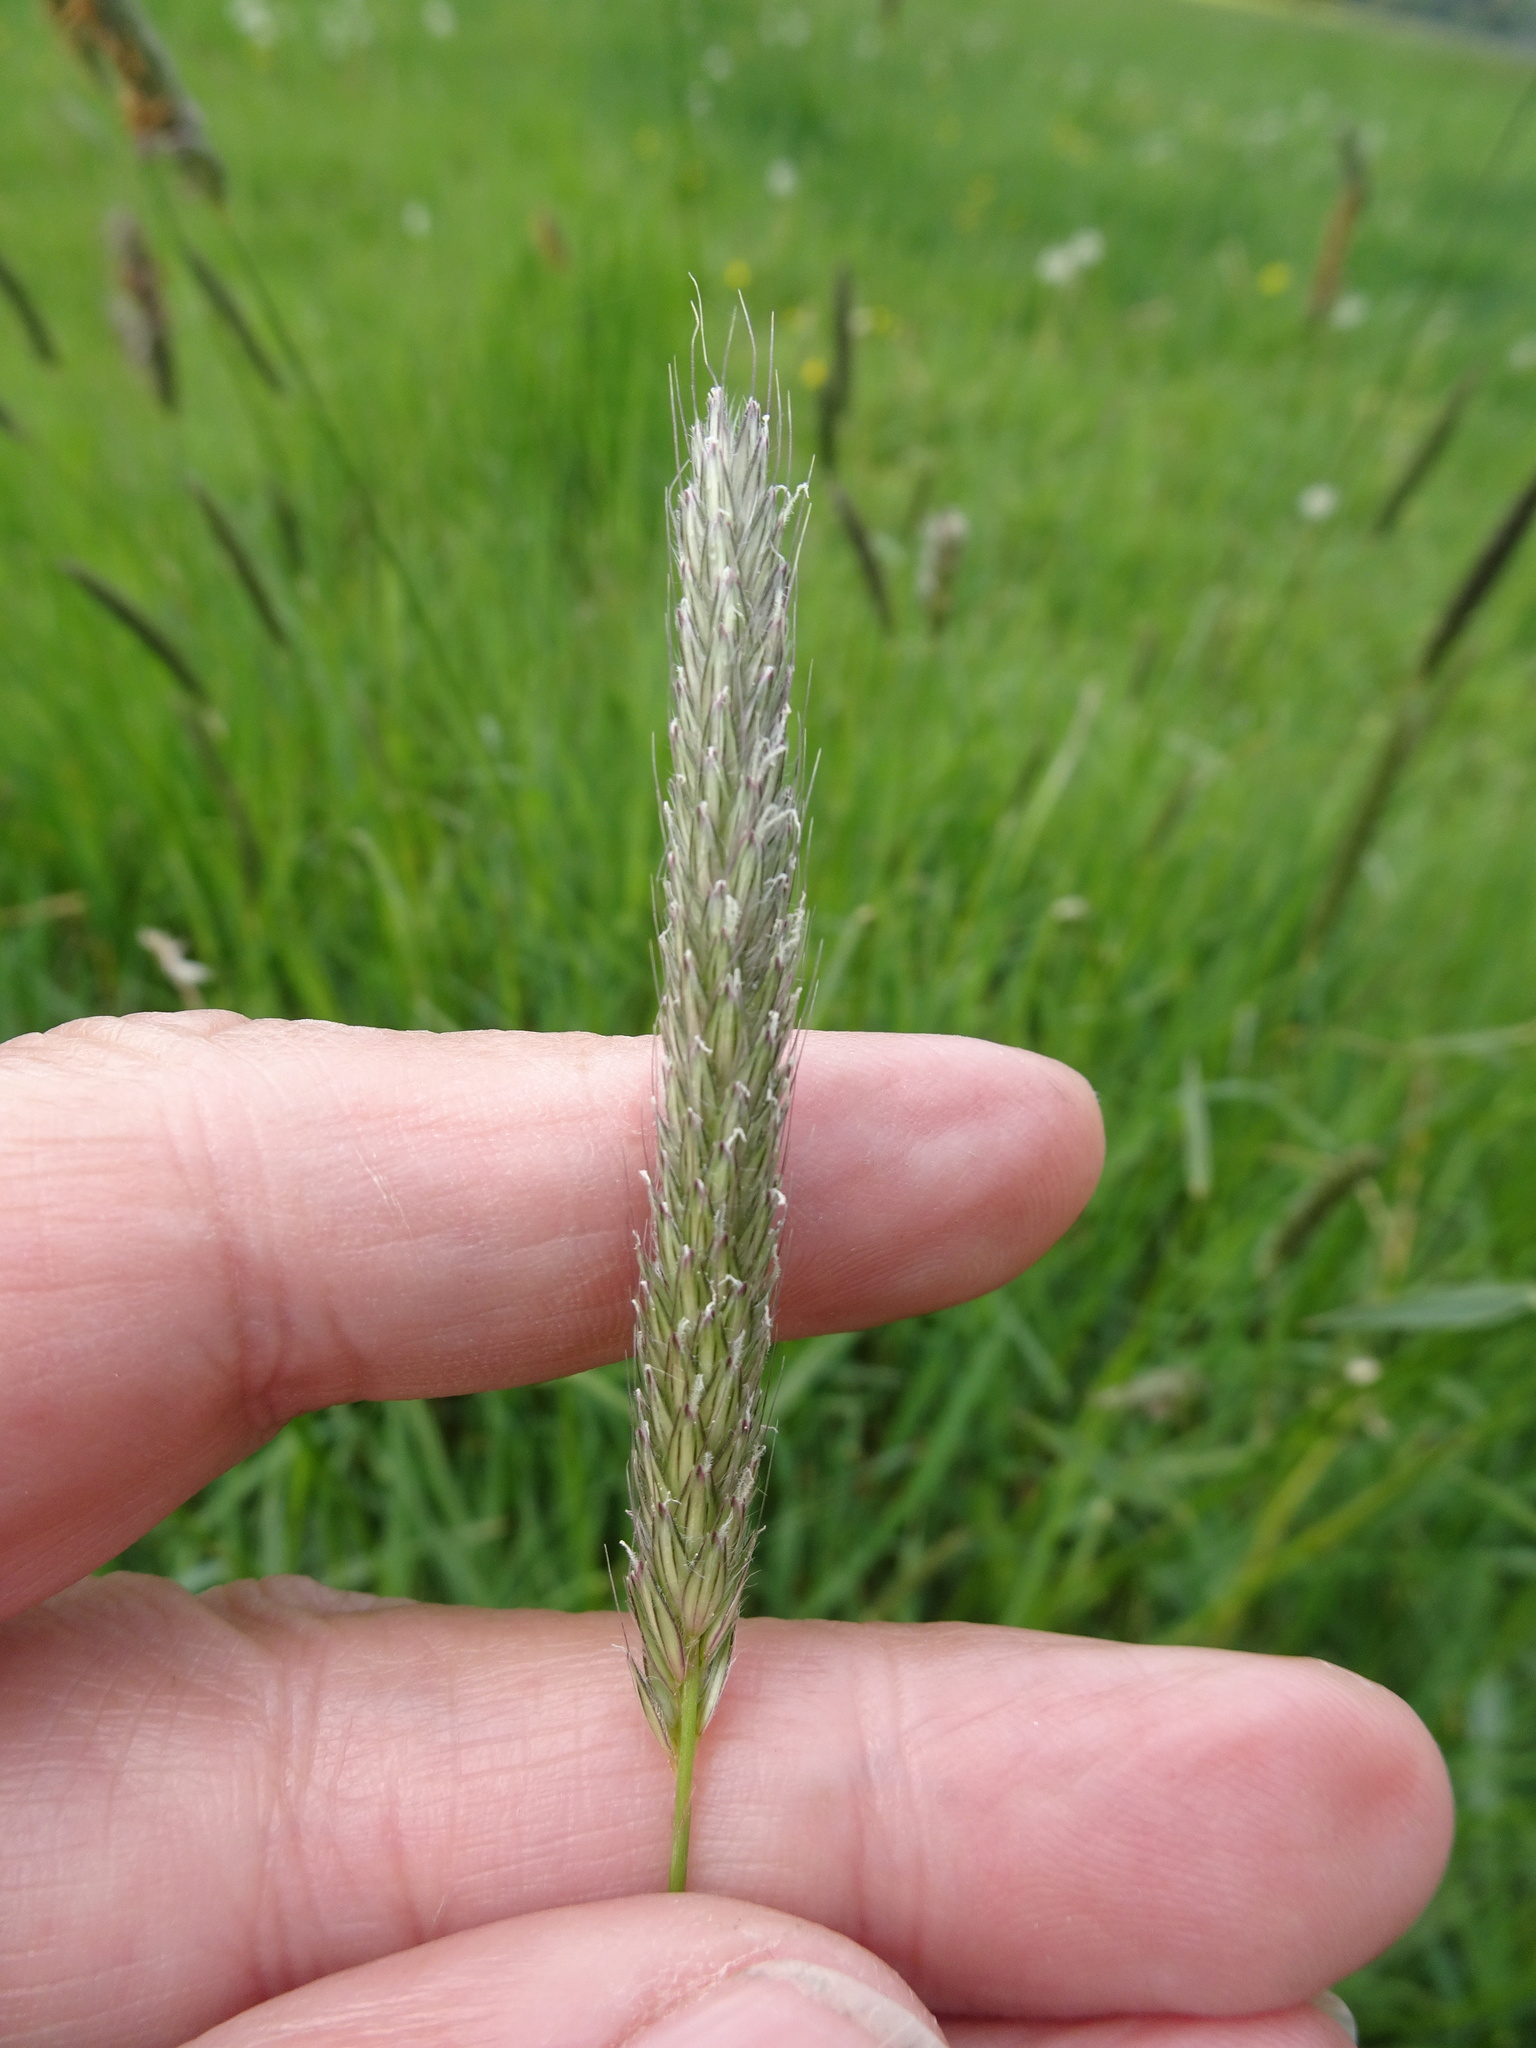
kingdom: Plantae
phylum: Tracheophyta
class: Liliopsida
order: Poales
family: Poaceae
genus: Alopecurus
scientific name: Alopecurus pratensis
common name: Meadow foxtail
